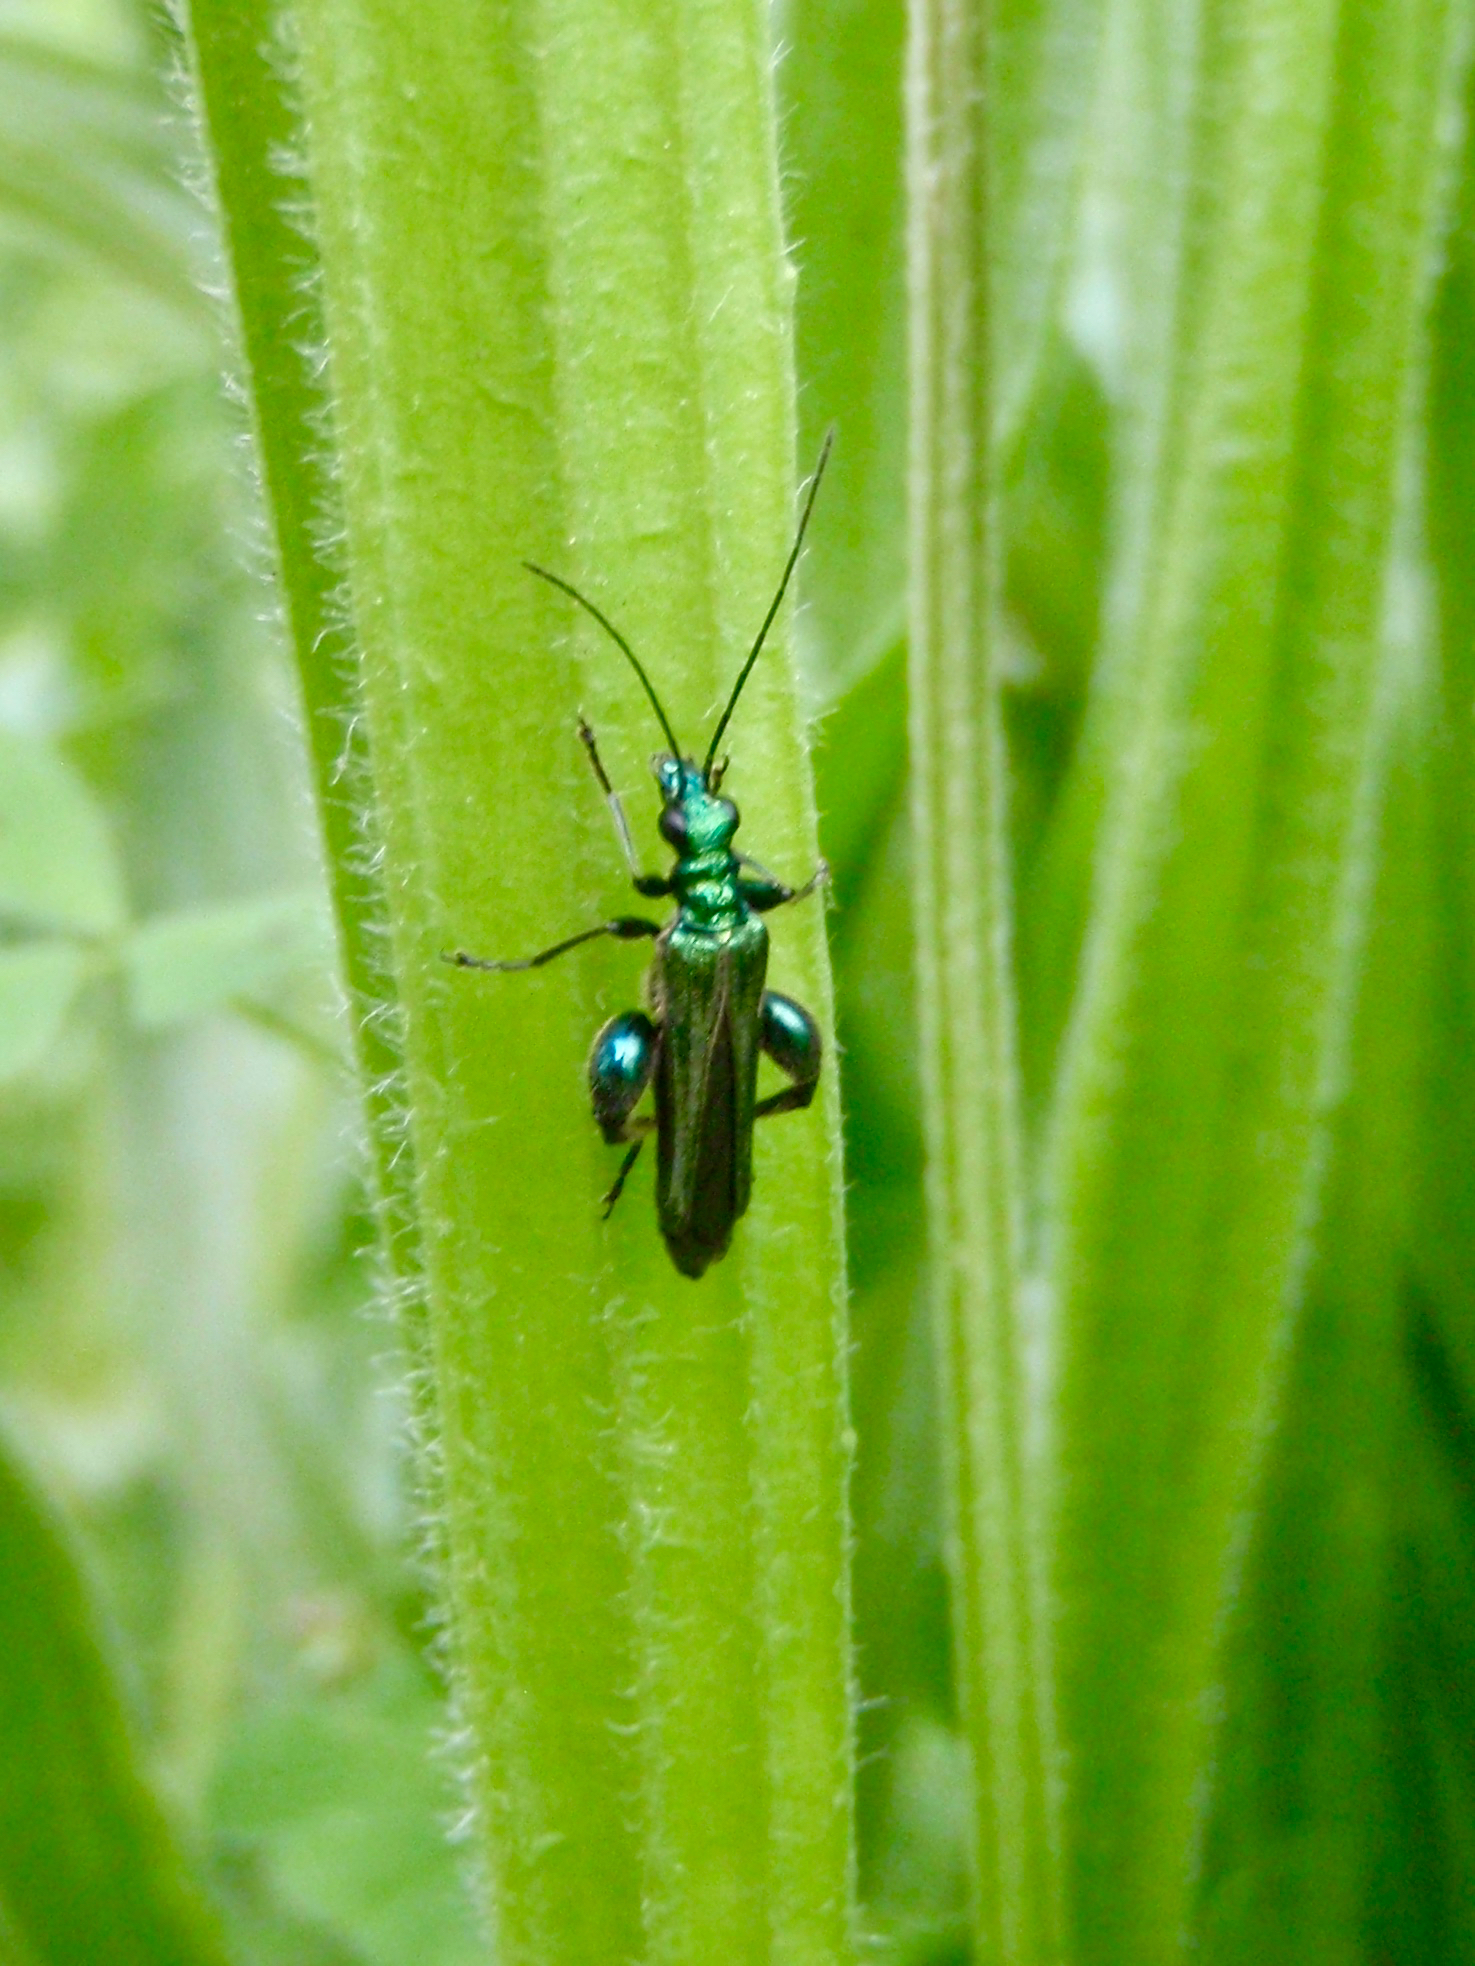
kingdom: Animalia
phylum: Arthropoda
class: Insecta
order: Coleoptera
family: Oedemeridae
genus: Oedemera
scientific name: Oedemera nobilis
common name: Swollen-thighed beetle
